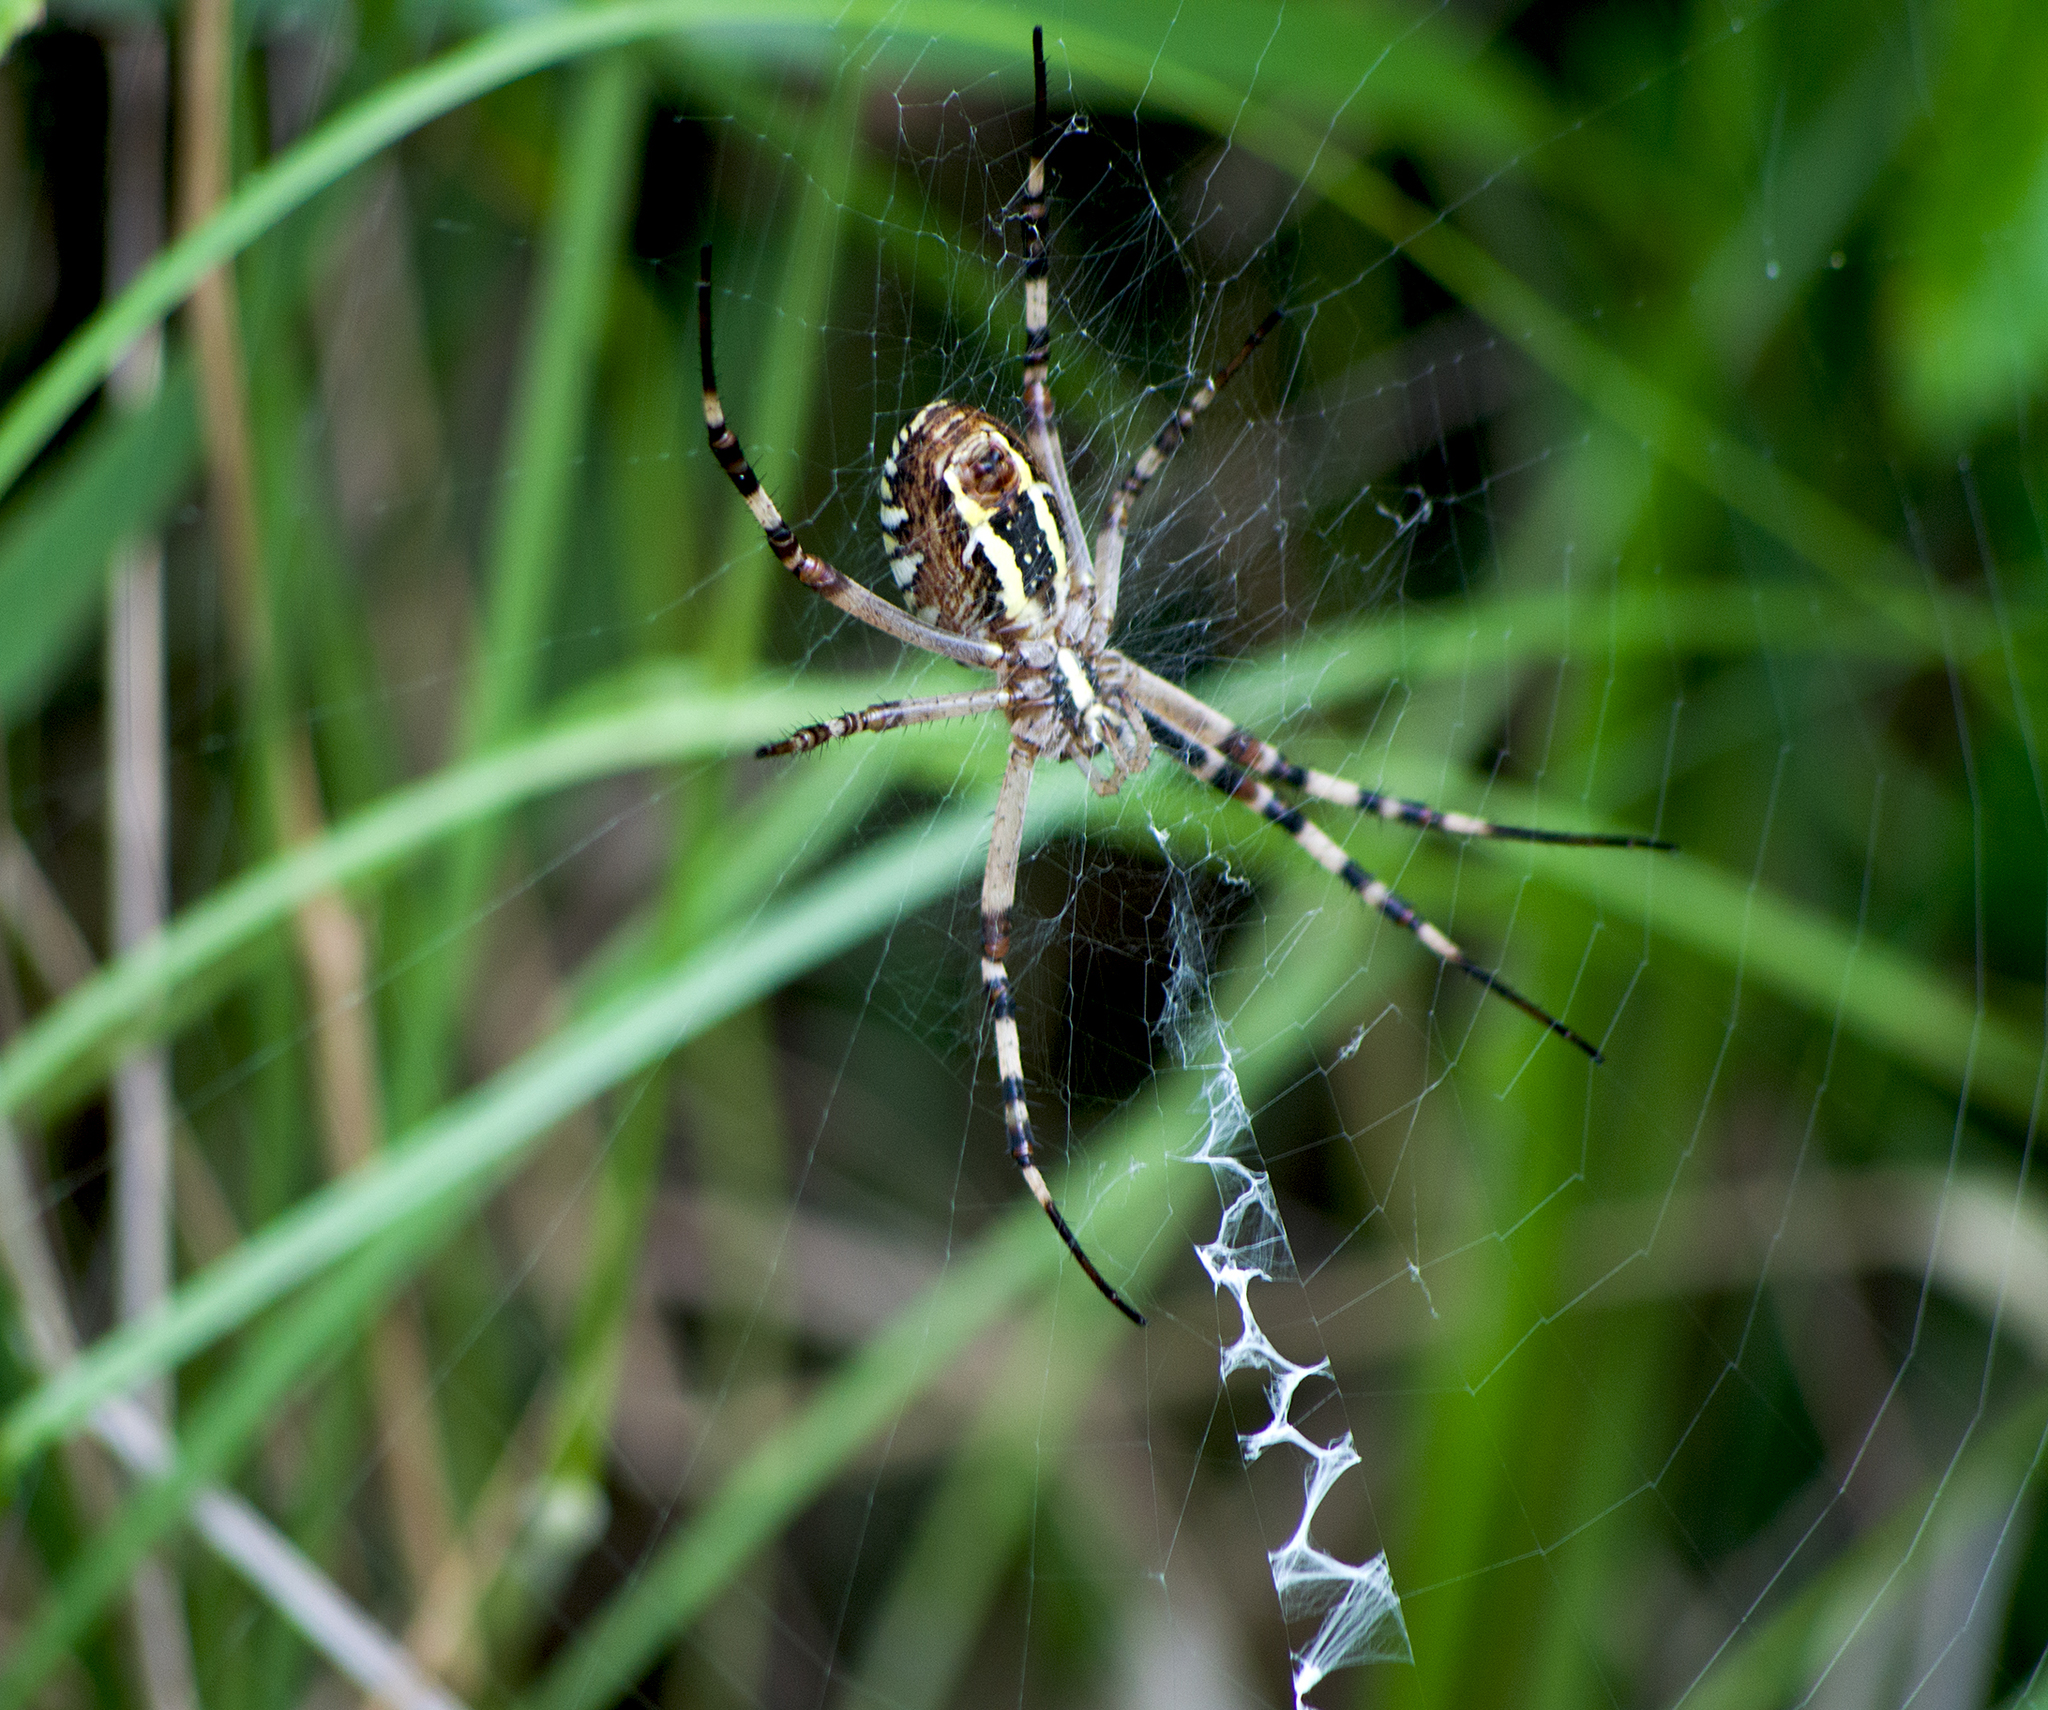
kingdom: Animalia
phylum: Arthropoda
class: Arachnida
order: Araneae
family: Araneidae
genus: Argiope
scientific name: Argiope bruennichi
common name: Wasp spider
